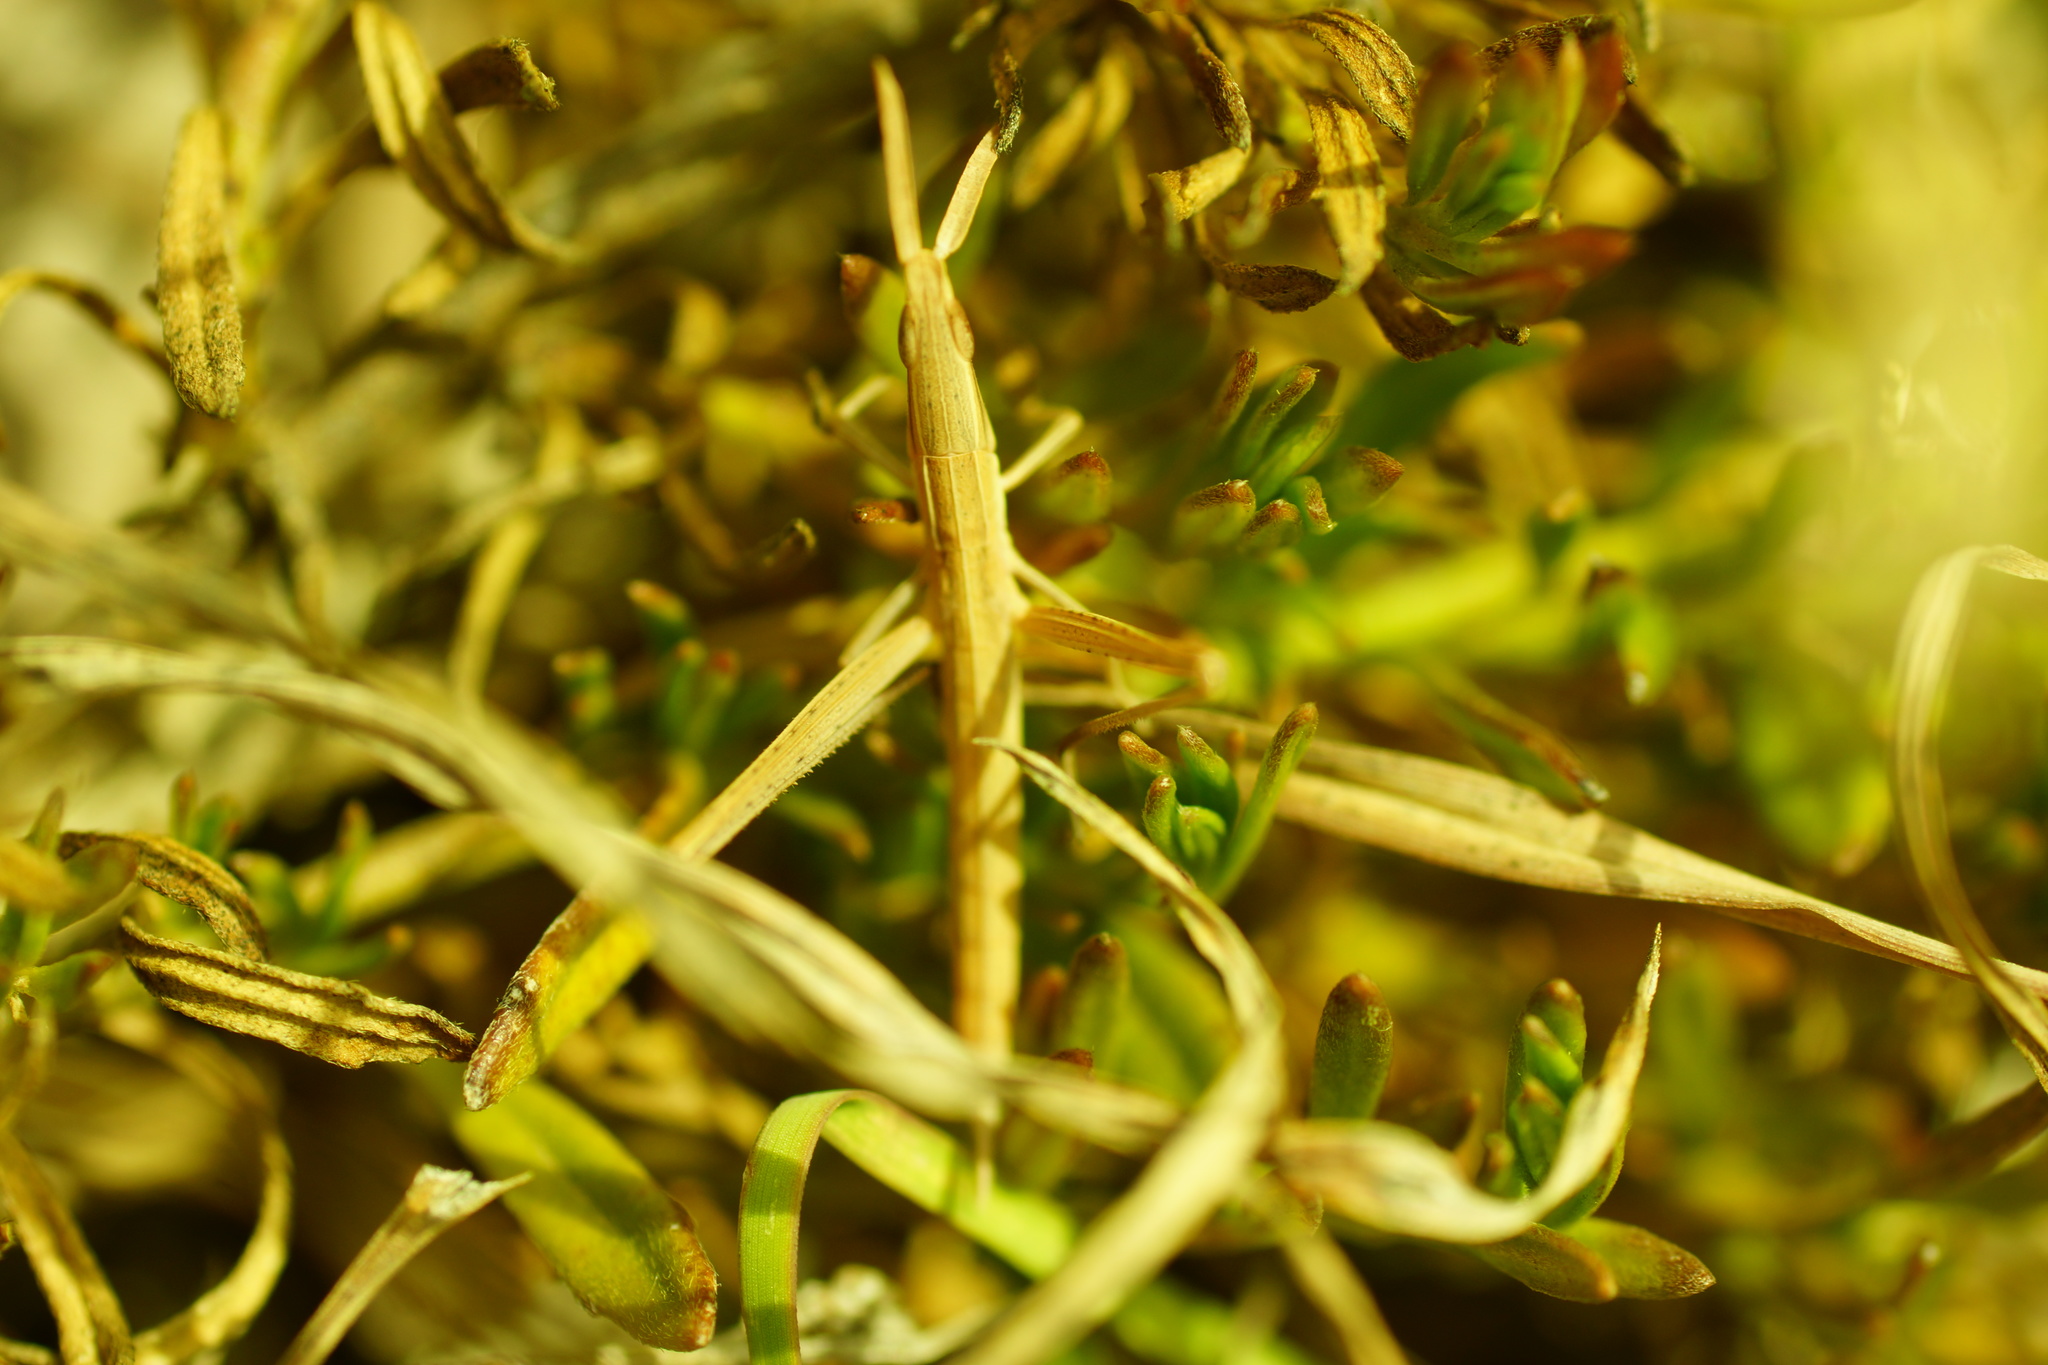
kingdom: Animalia
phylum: Arthropoda
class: Insecta
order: Orthoptera
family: Acrididae
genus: Acrida
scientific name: Acrida conica
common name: Giant green slantface
